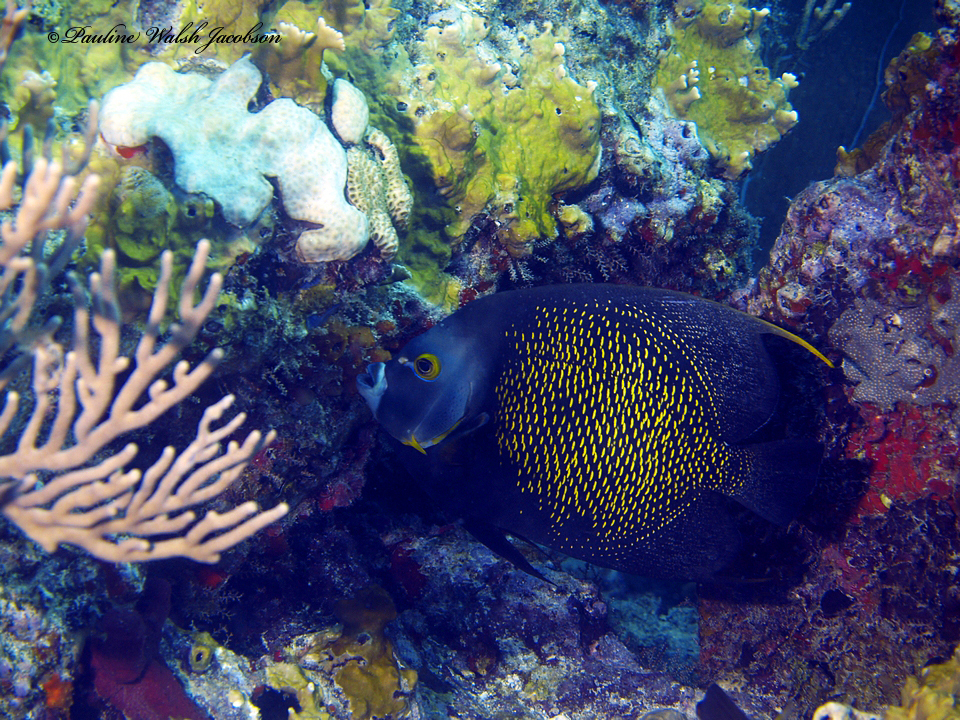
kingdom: Animalia
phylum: Chordata
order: Perciformes
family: Pomacanthidae
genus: Pomacanthus
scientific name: Pomacanthus paru
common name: French angelfish
